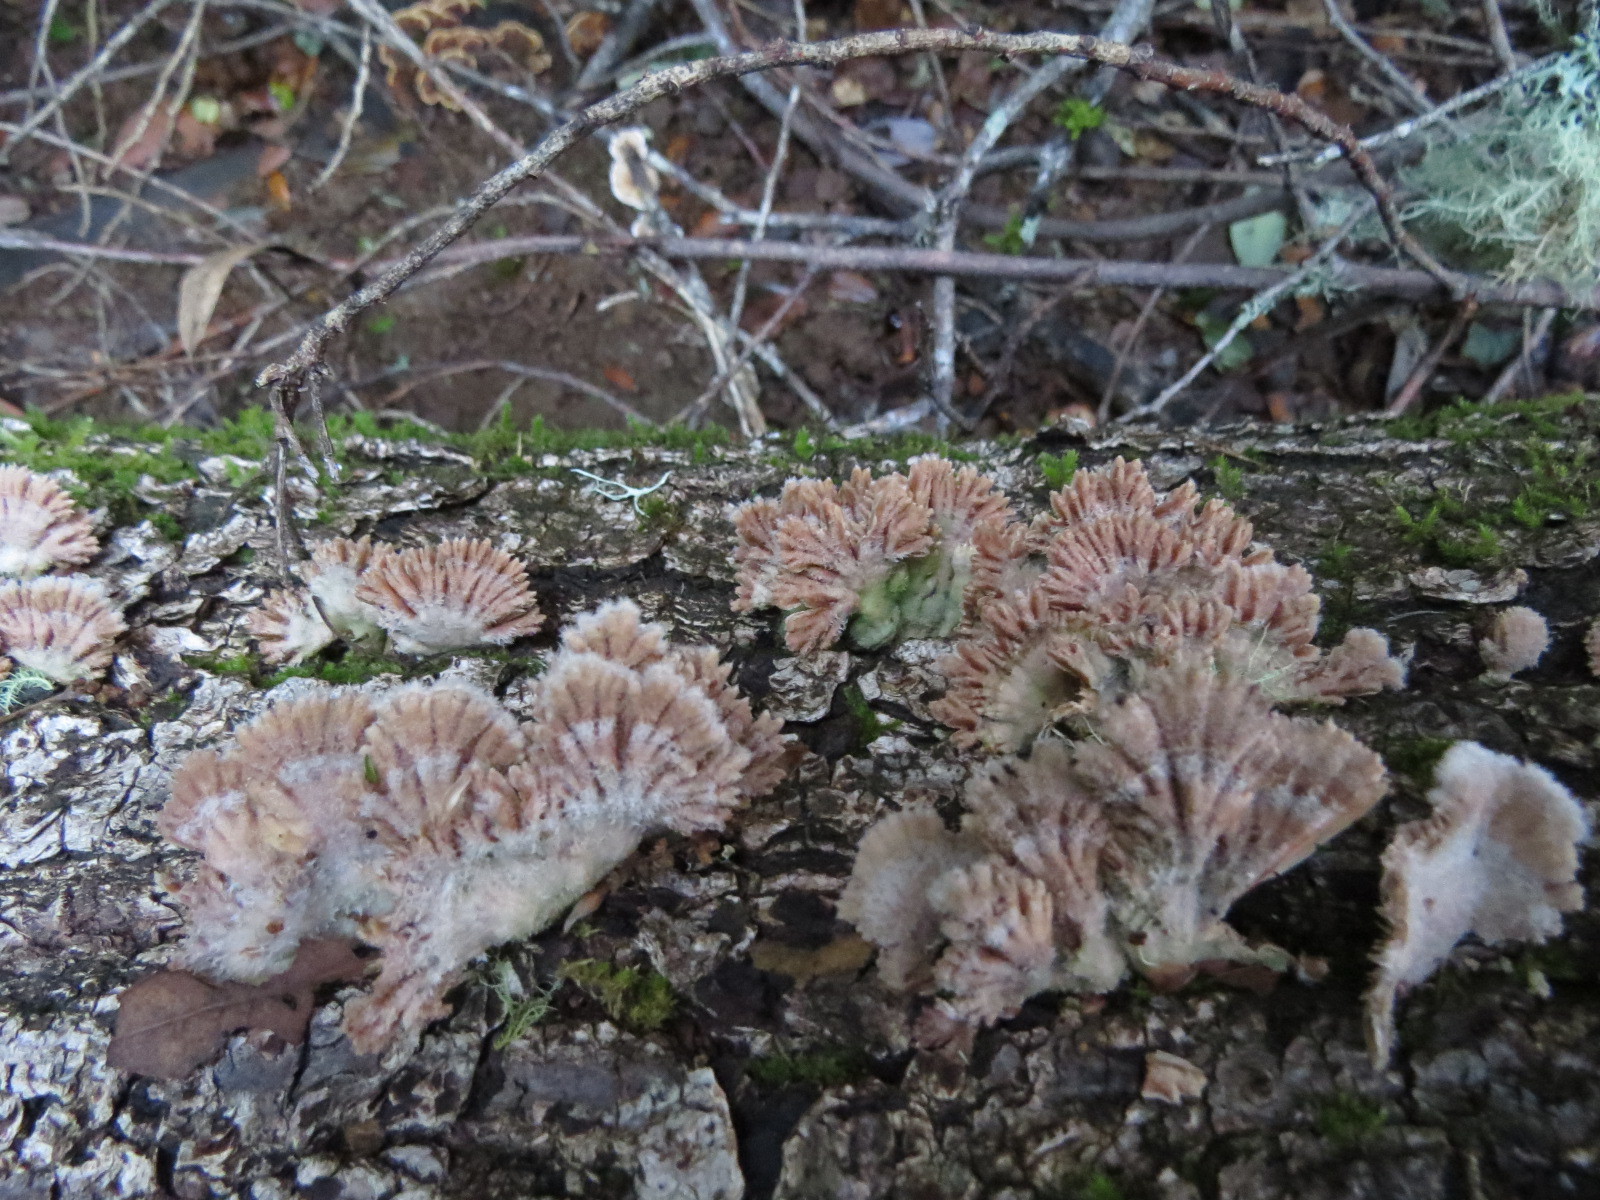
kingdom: Fungi
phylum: Basidiomycota
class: Agaricomycetes
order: Agaricales
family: Schizophyllaceae
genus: Schizophyllum
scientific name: Schizophyllum commune
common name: Common porecrust
